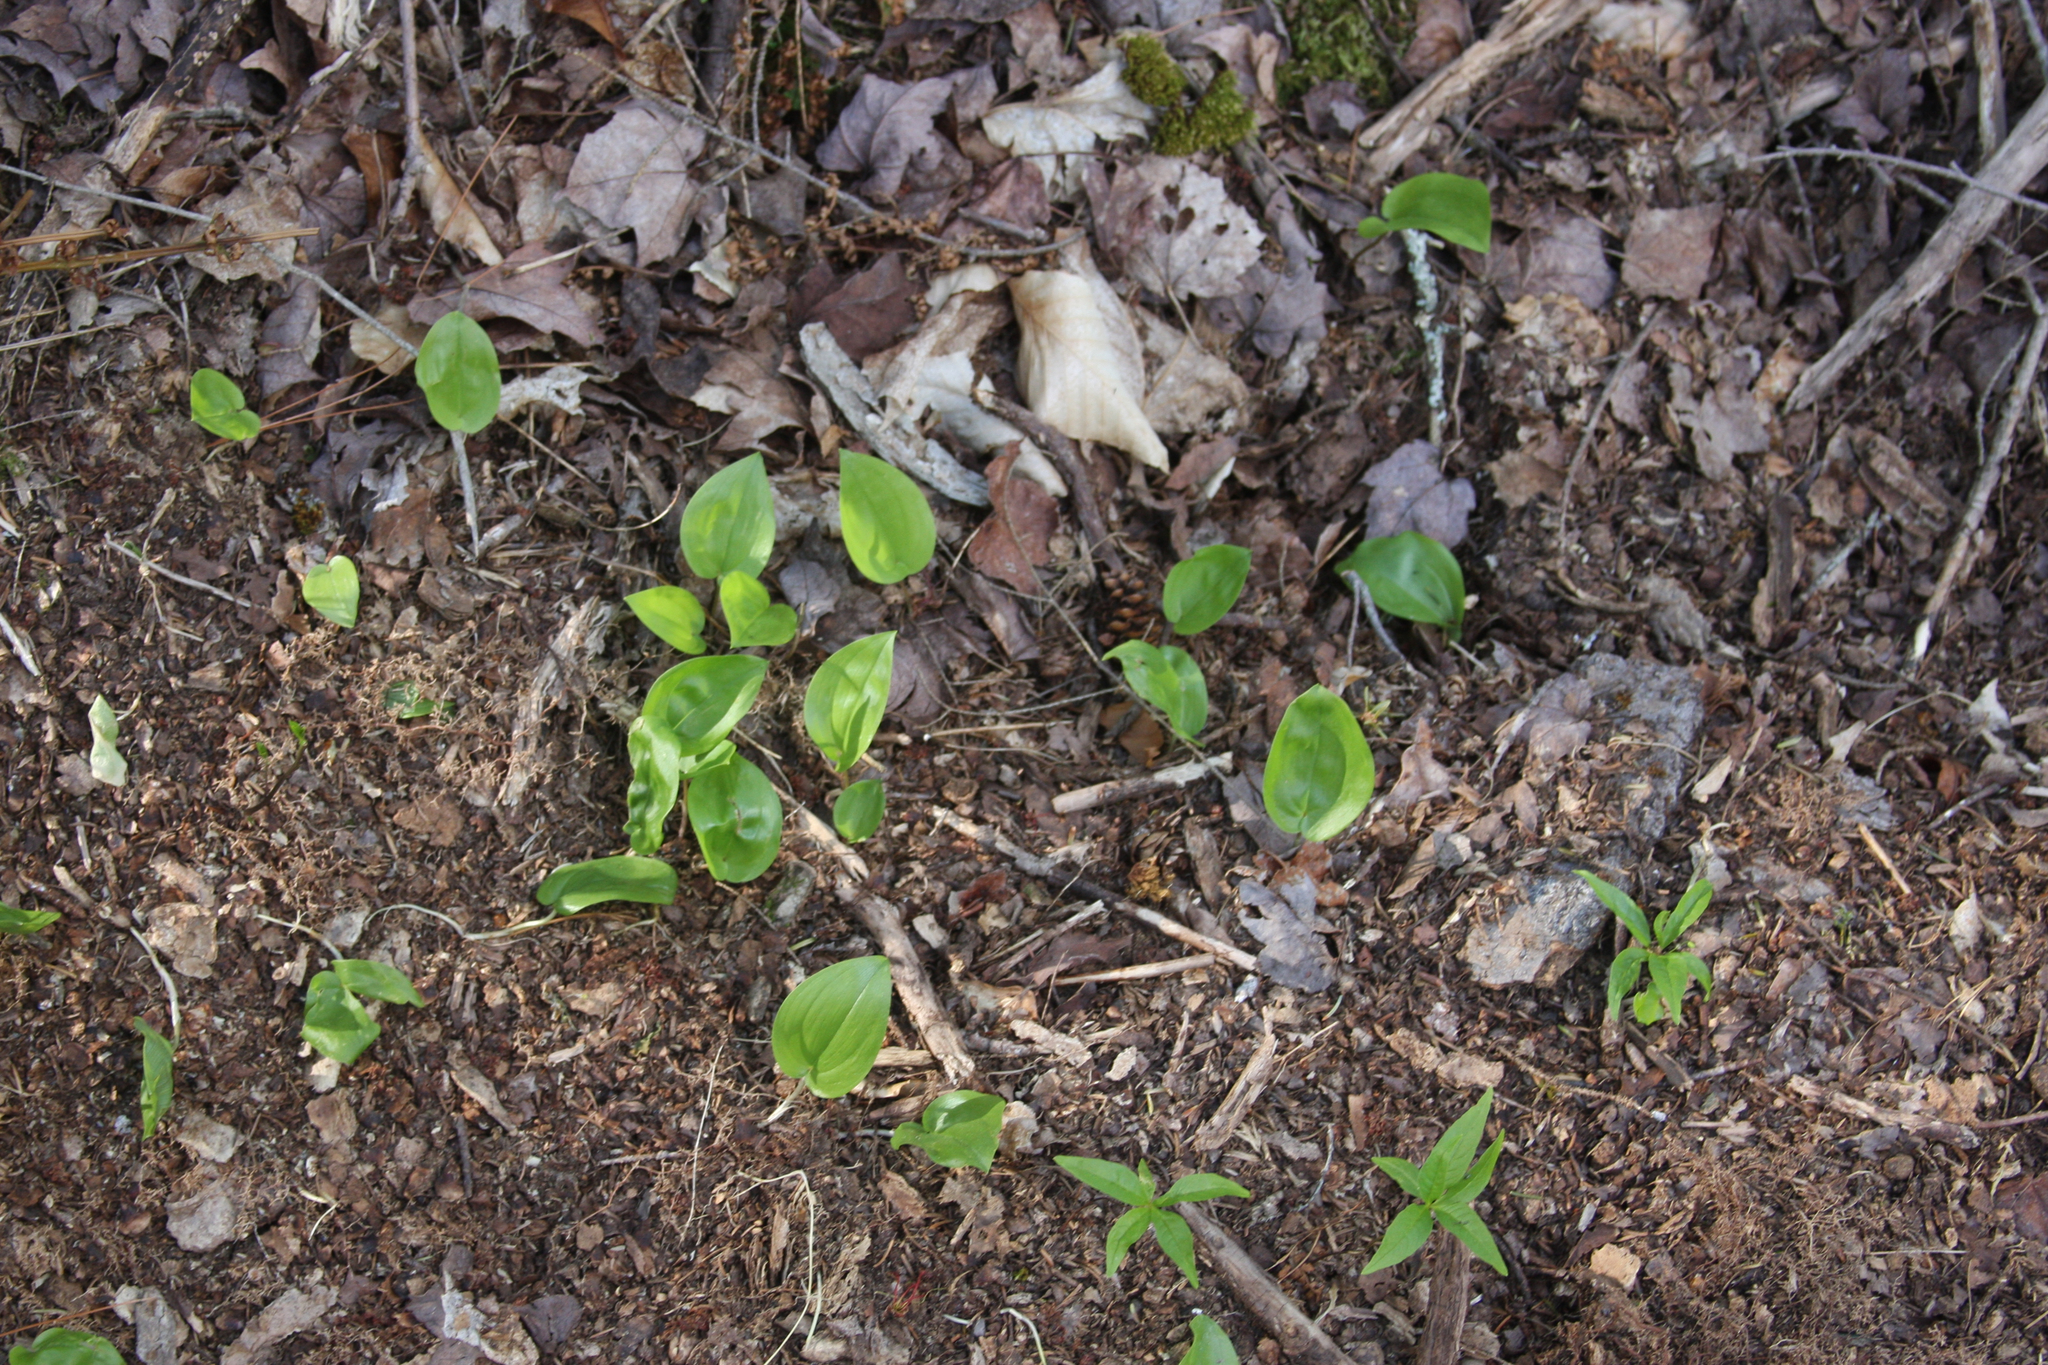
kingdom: Plantae
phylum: Tracheophyta
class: Liliopsida
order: Asparagales
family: Asparagaceae
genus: Maianthemum
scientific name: Maianthemum canadense
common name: False lily-of-the-valley
